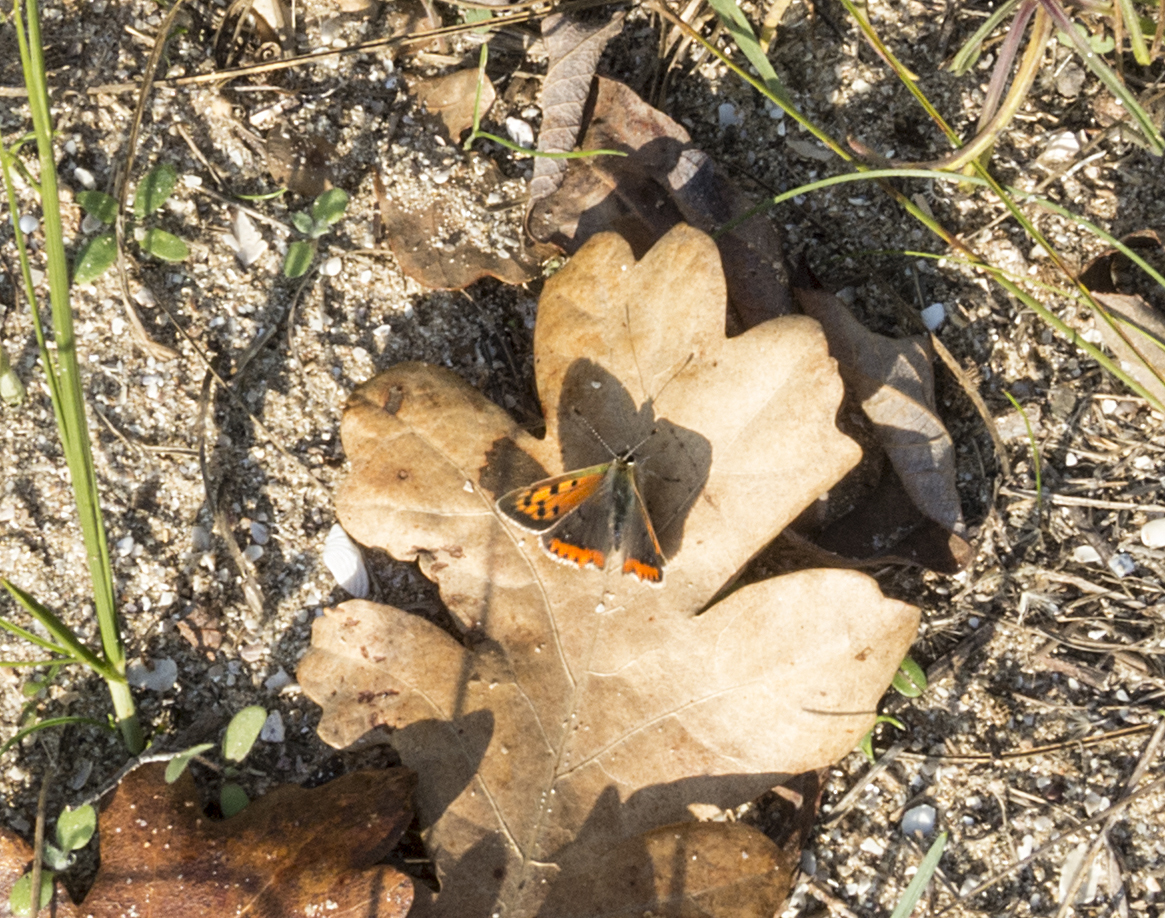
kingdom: Animalia
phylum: Arthropoda
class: Insecta
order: Lepidoptera
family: Lycaenidae
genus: Lycaena
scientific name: Lycaena phlaeas
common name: Small copper
